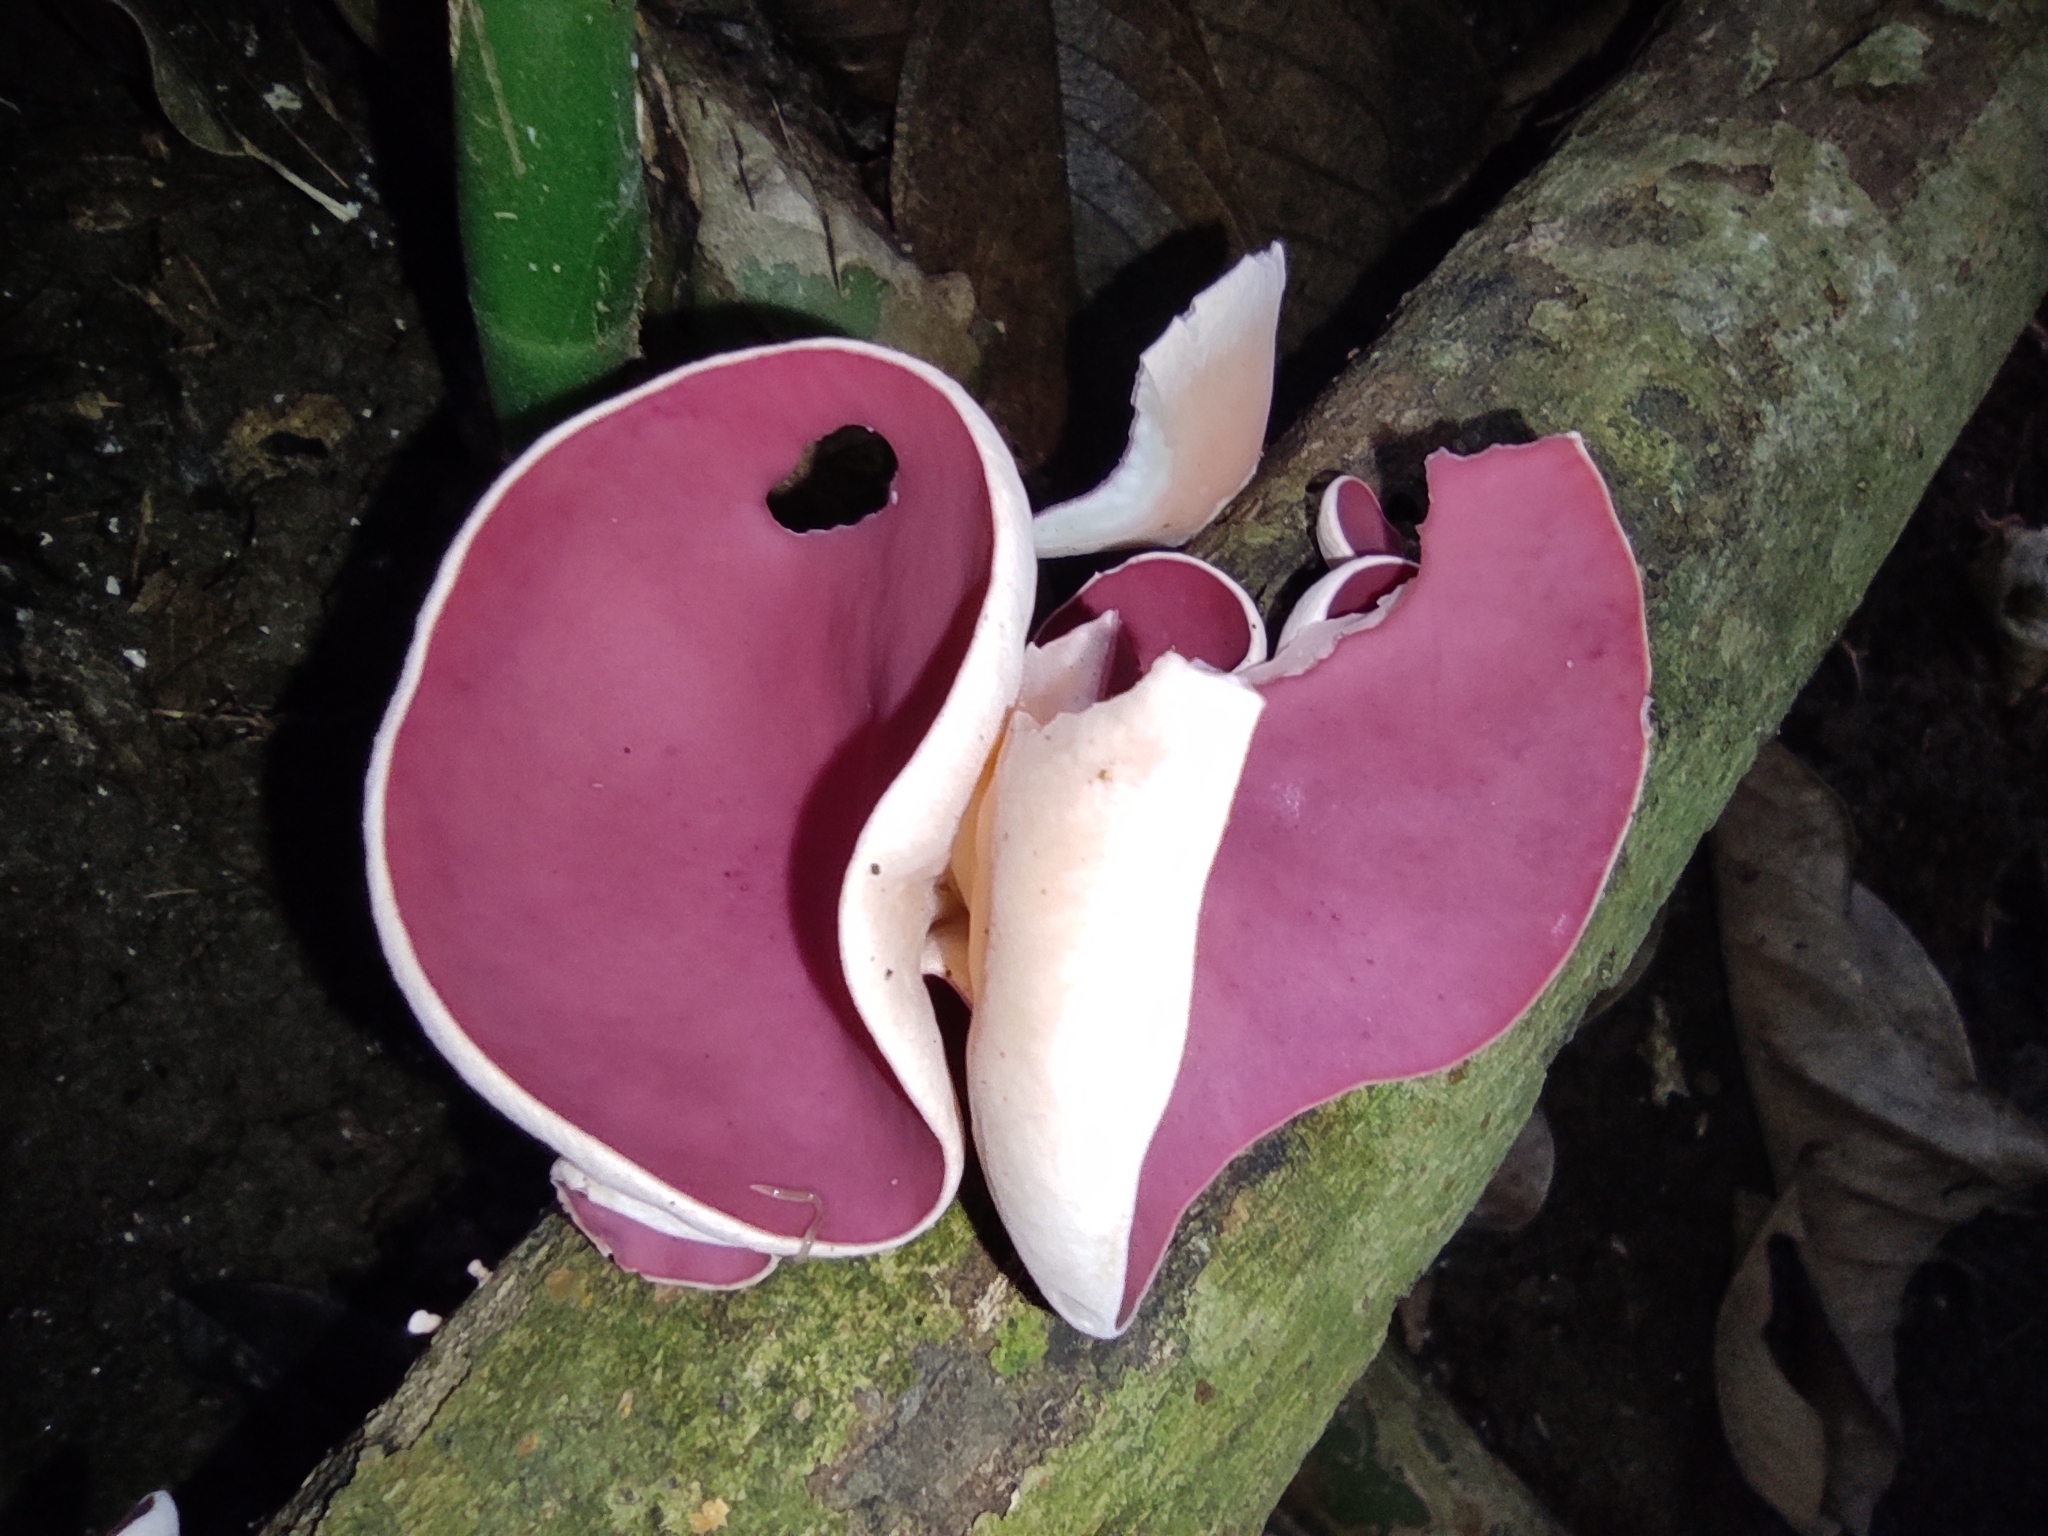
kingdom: Fungi
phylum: Ascomycota
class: Pezizomycetes
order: Pezizales
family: Sarcoscyphaceae
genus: Phillipsia
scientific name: Phillipsia domingensis
